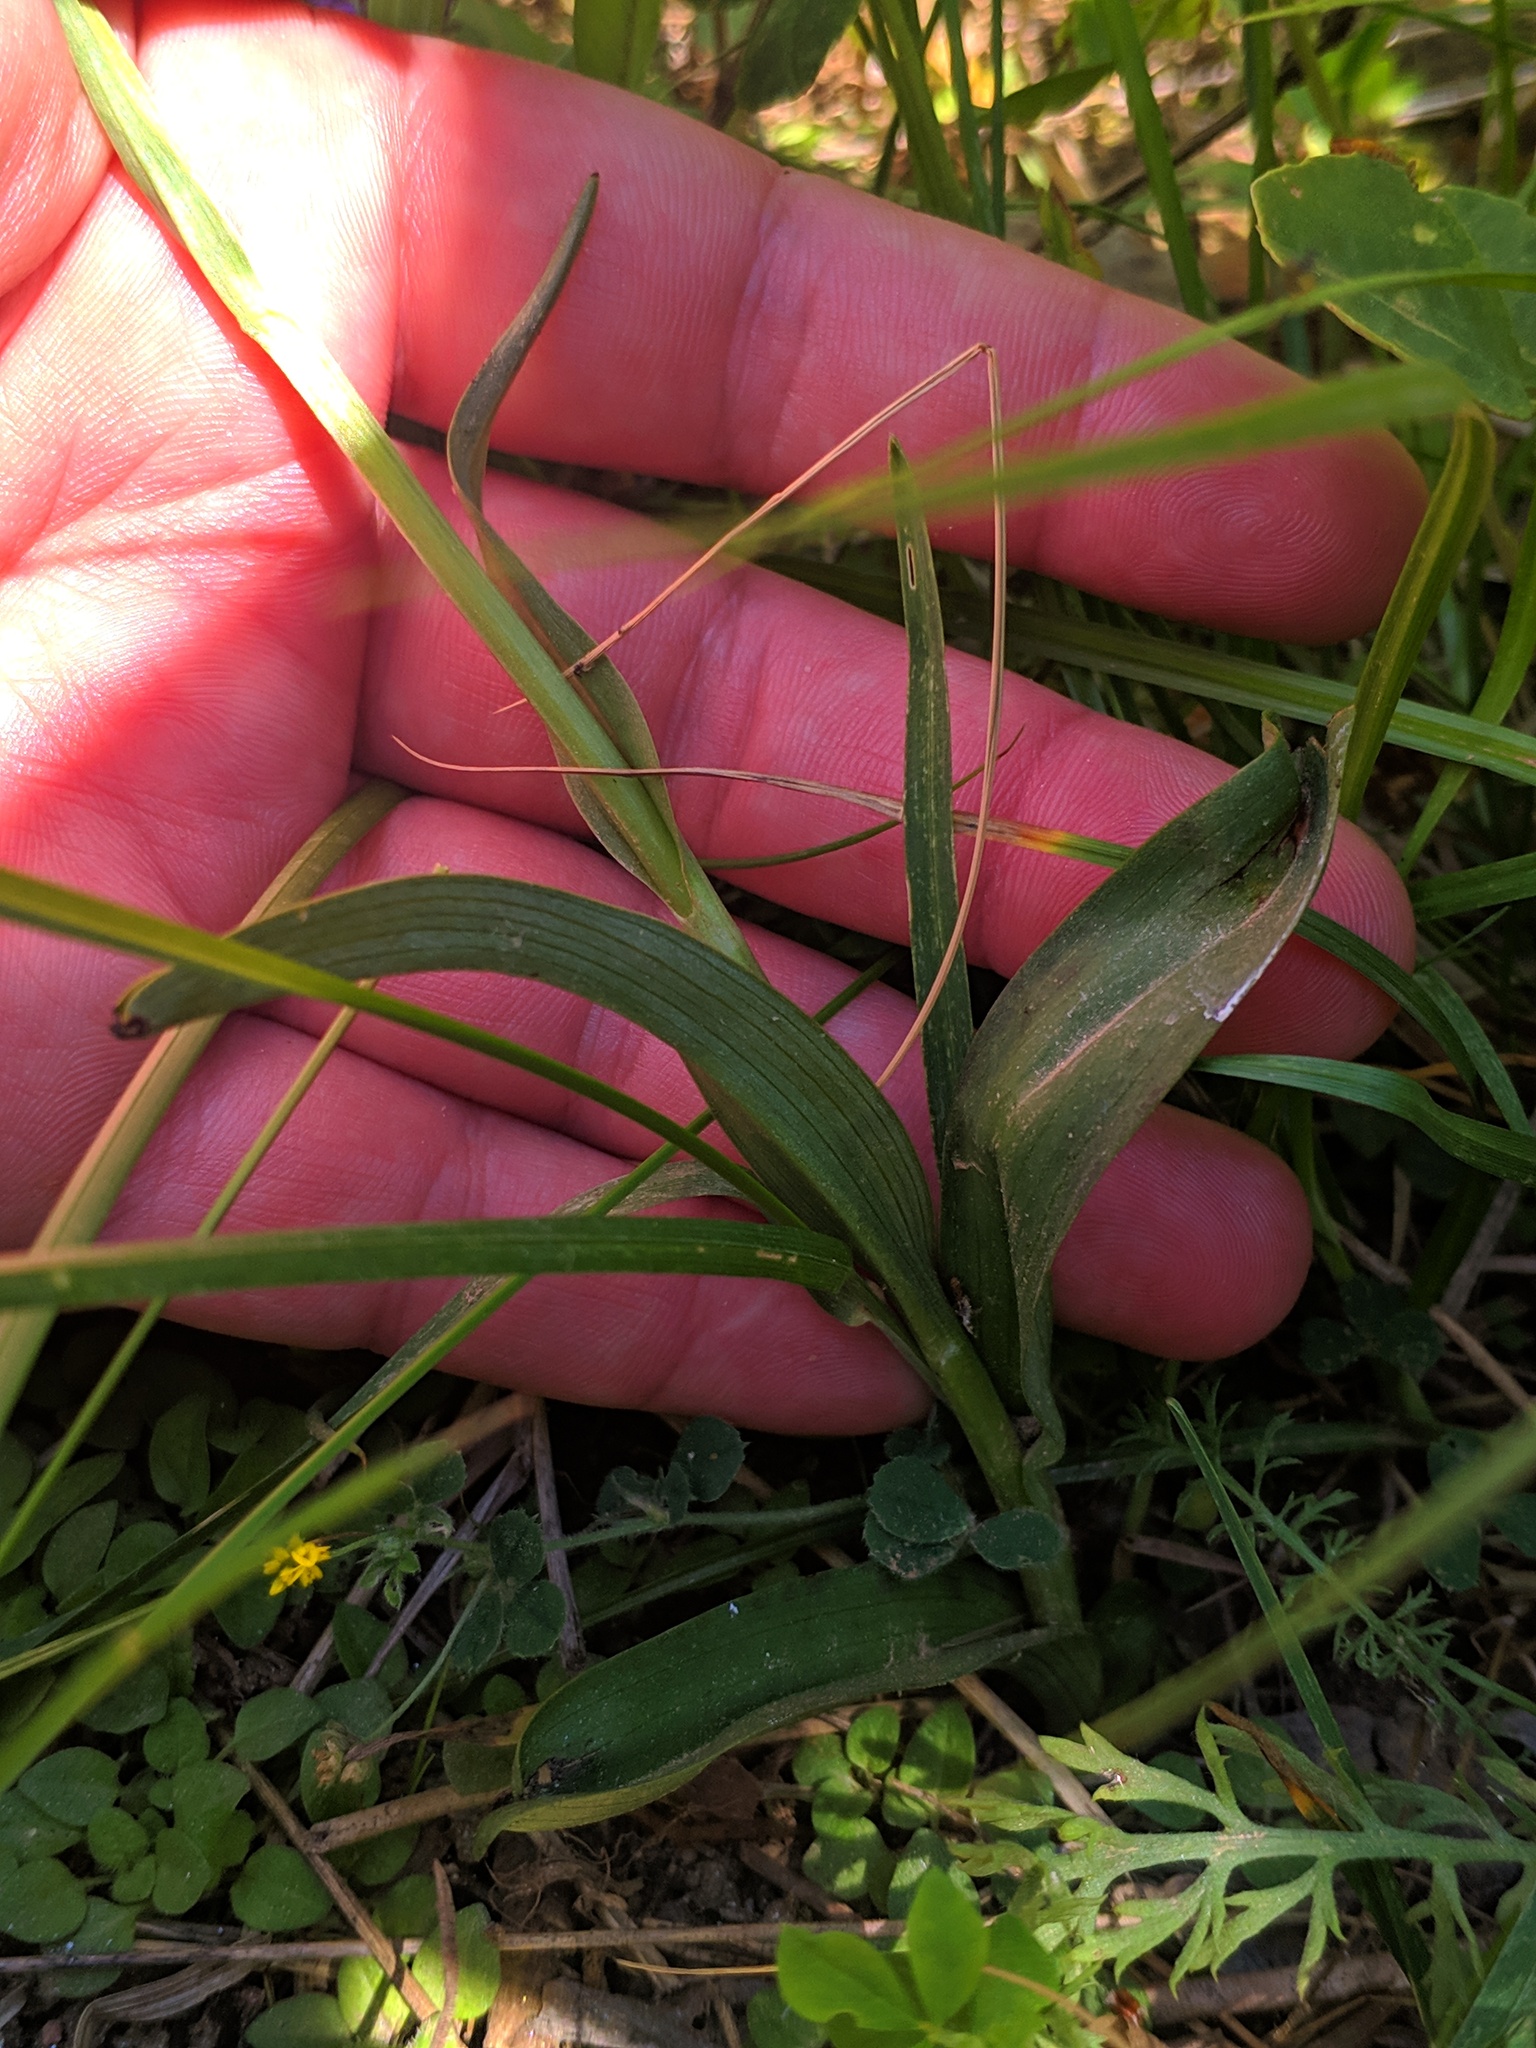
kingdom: Plantae
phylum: Tracheophyta
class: Liliopsida
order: Asparagales
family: Orchidaceae
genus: Dactylorhiza
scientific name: Dactylorhiza maculata
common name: Heath spotted-orchid
